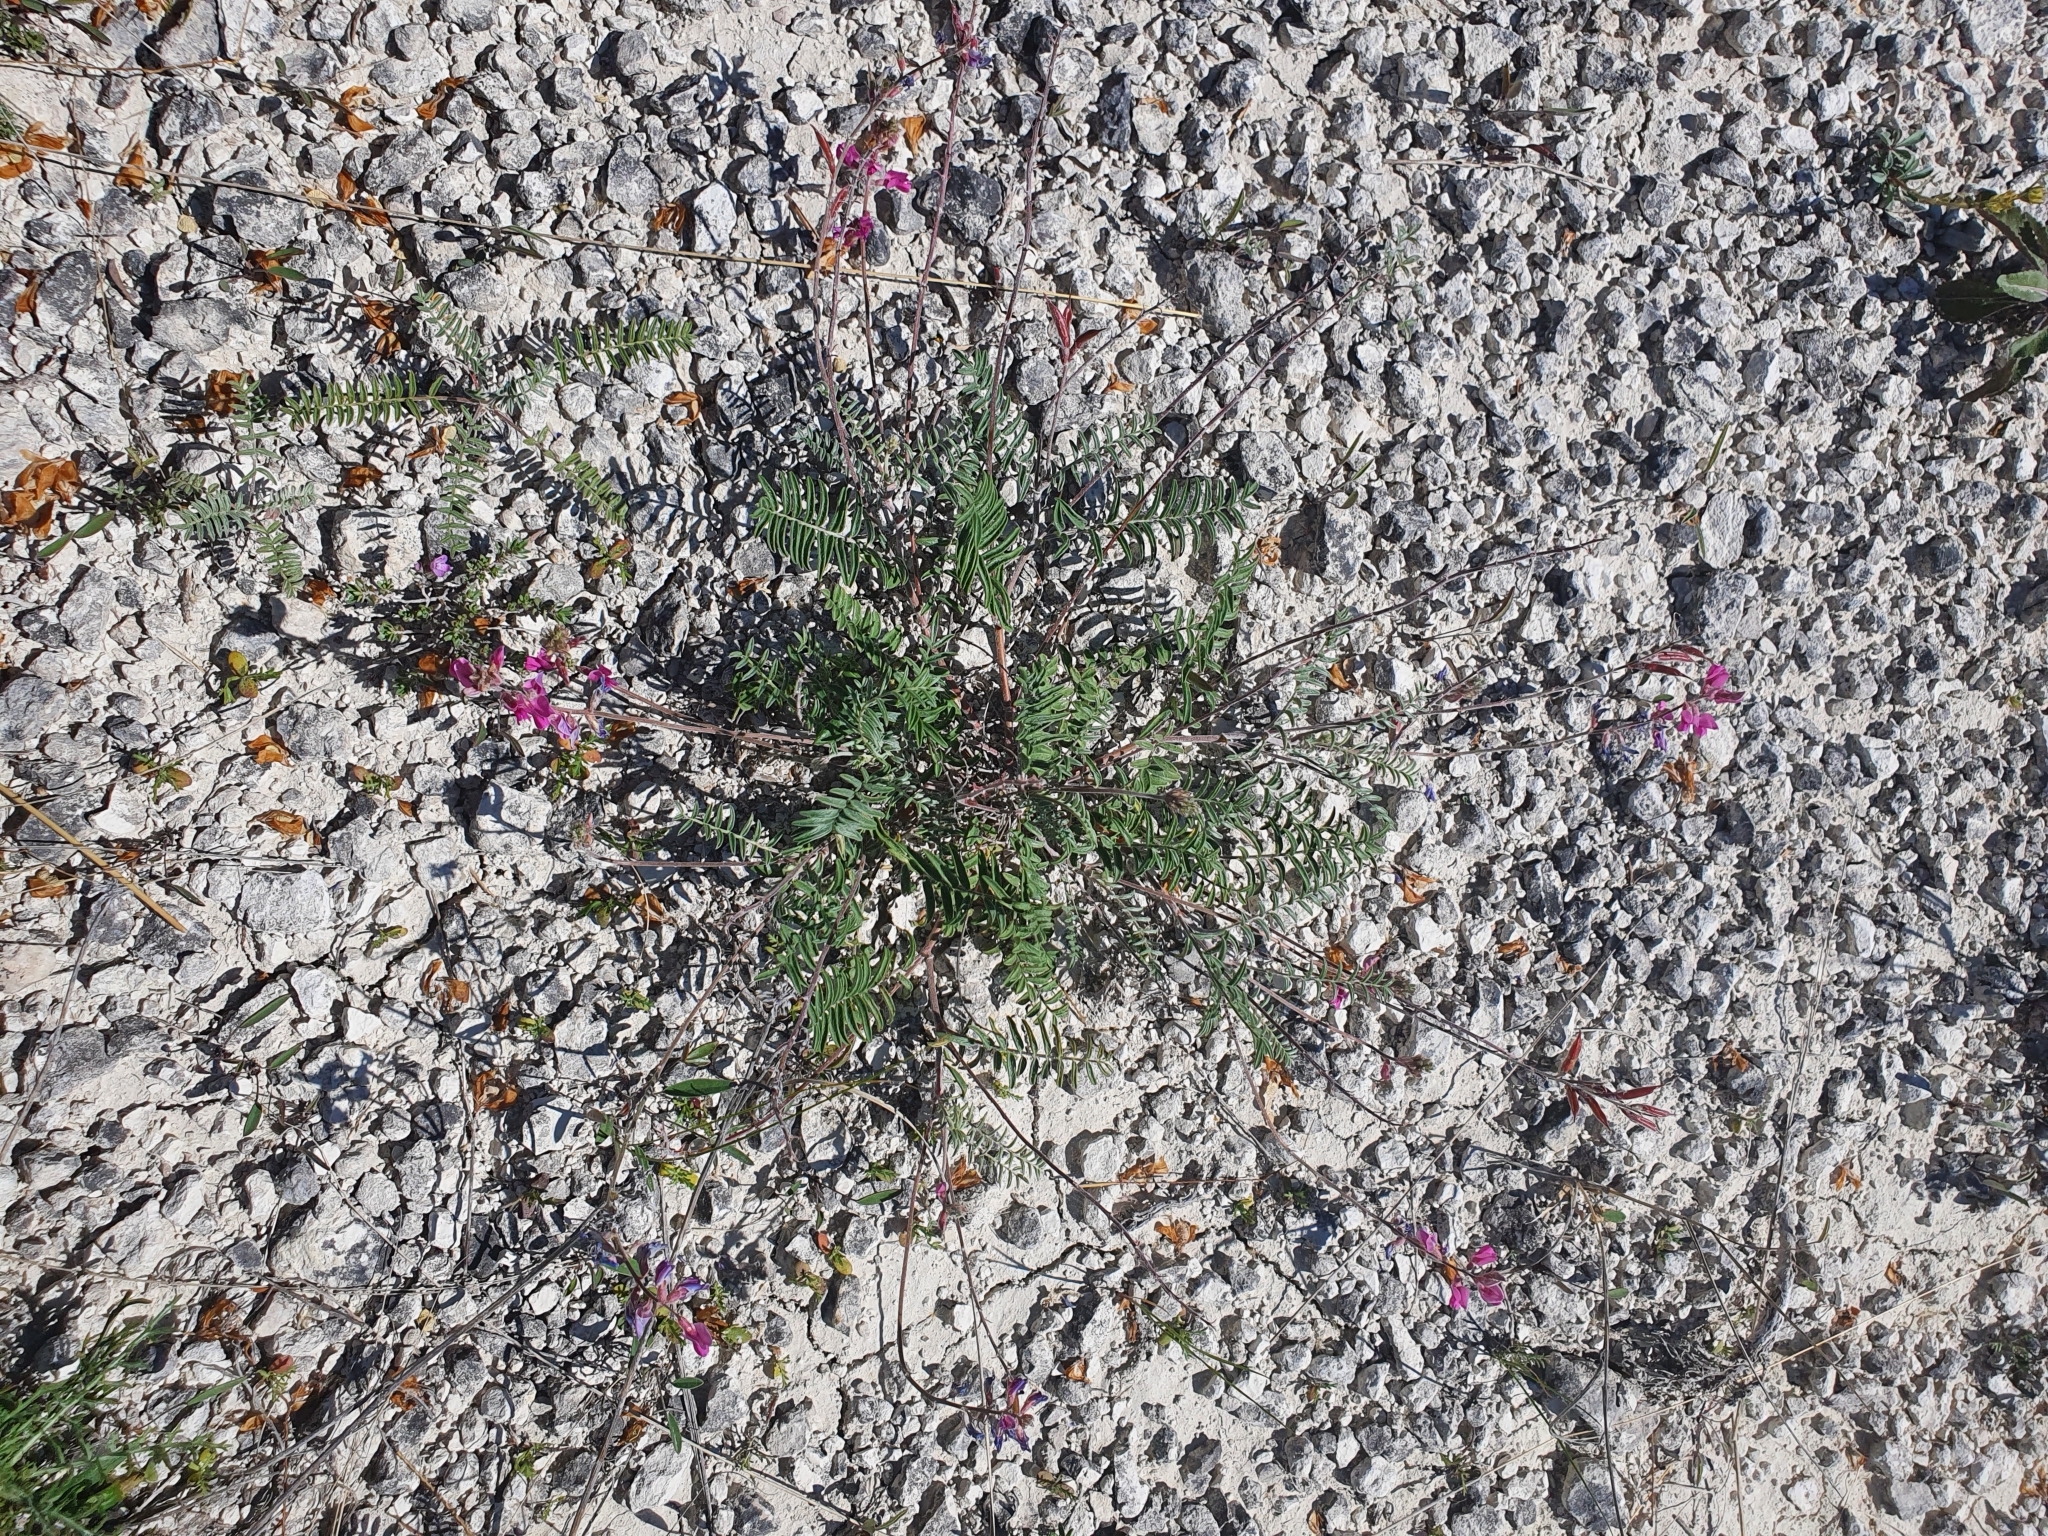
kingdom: Plantae
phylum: Tracheophyta
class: Magnoliopsida
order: Fabales
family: Fabaceae
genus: Oxytropis
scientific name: Oxytropis floribunda
